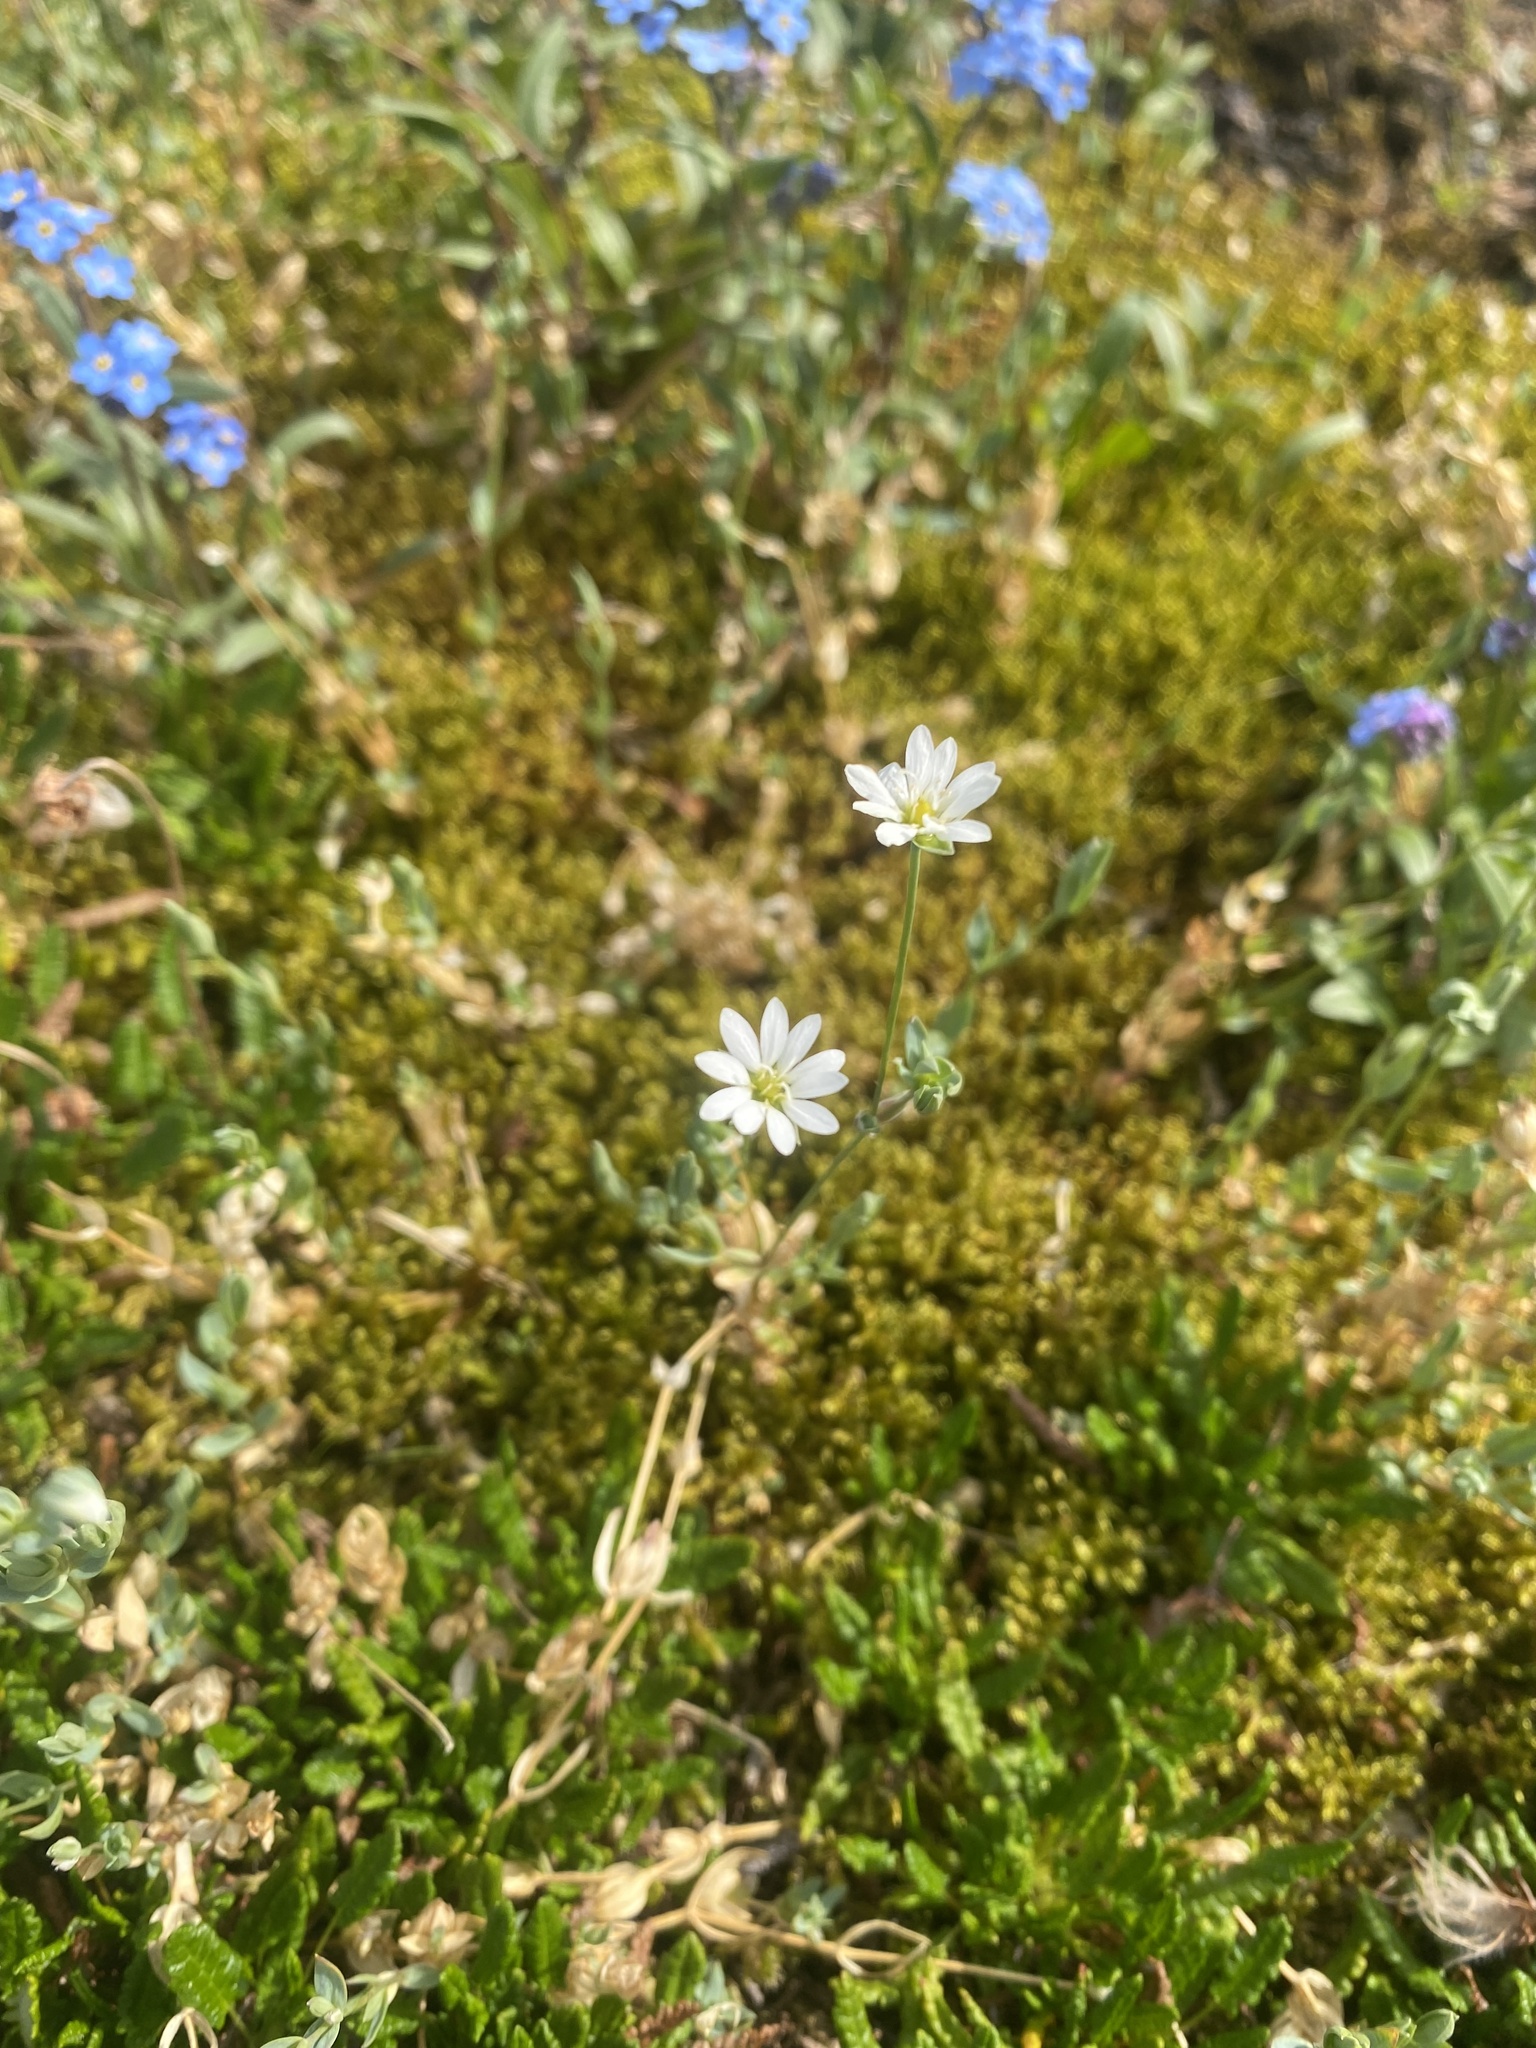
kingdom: Plantae
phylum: Tracheophyta
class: Magnoliopsida
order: Caryophyllales
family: Caryophyllaceae
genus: Stellaria
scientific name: Stellaria longipes
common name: Goldie's starwort
